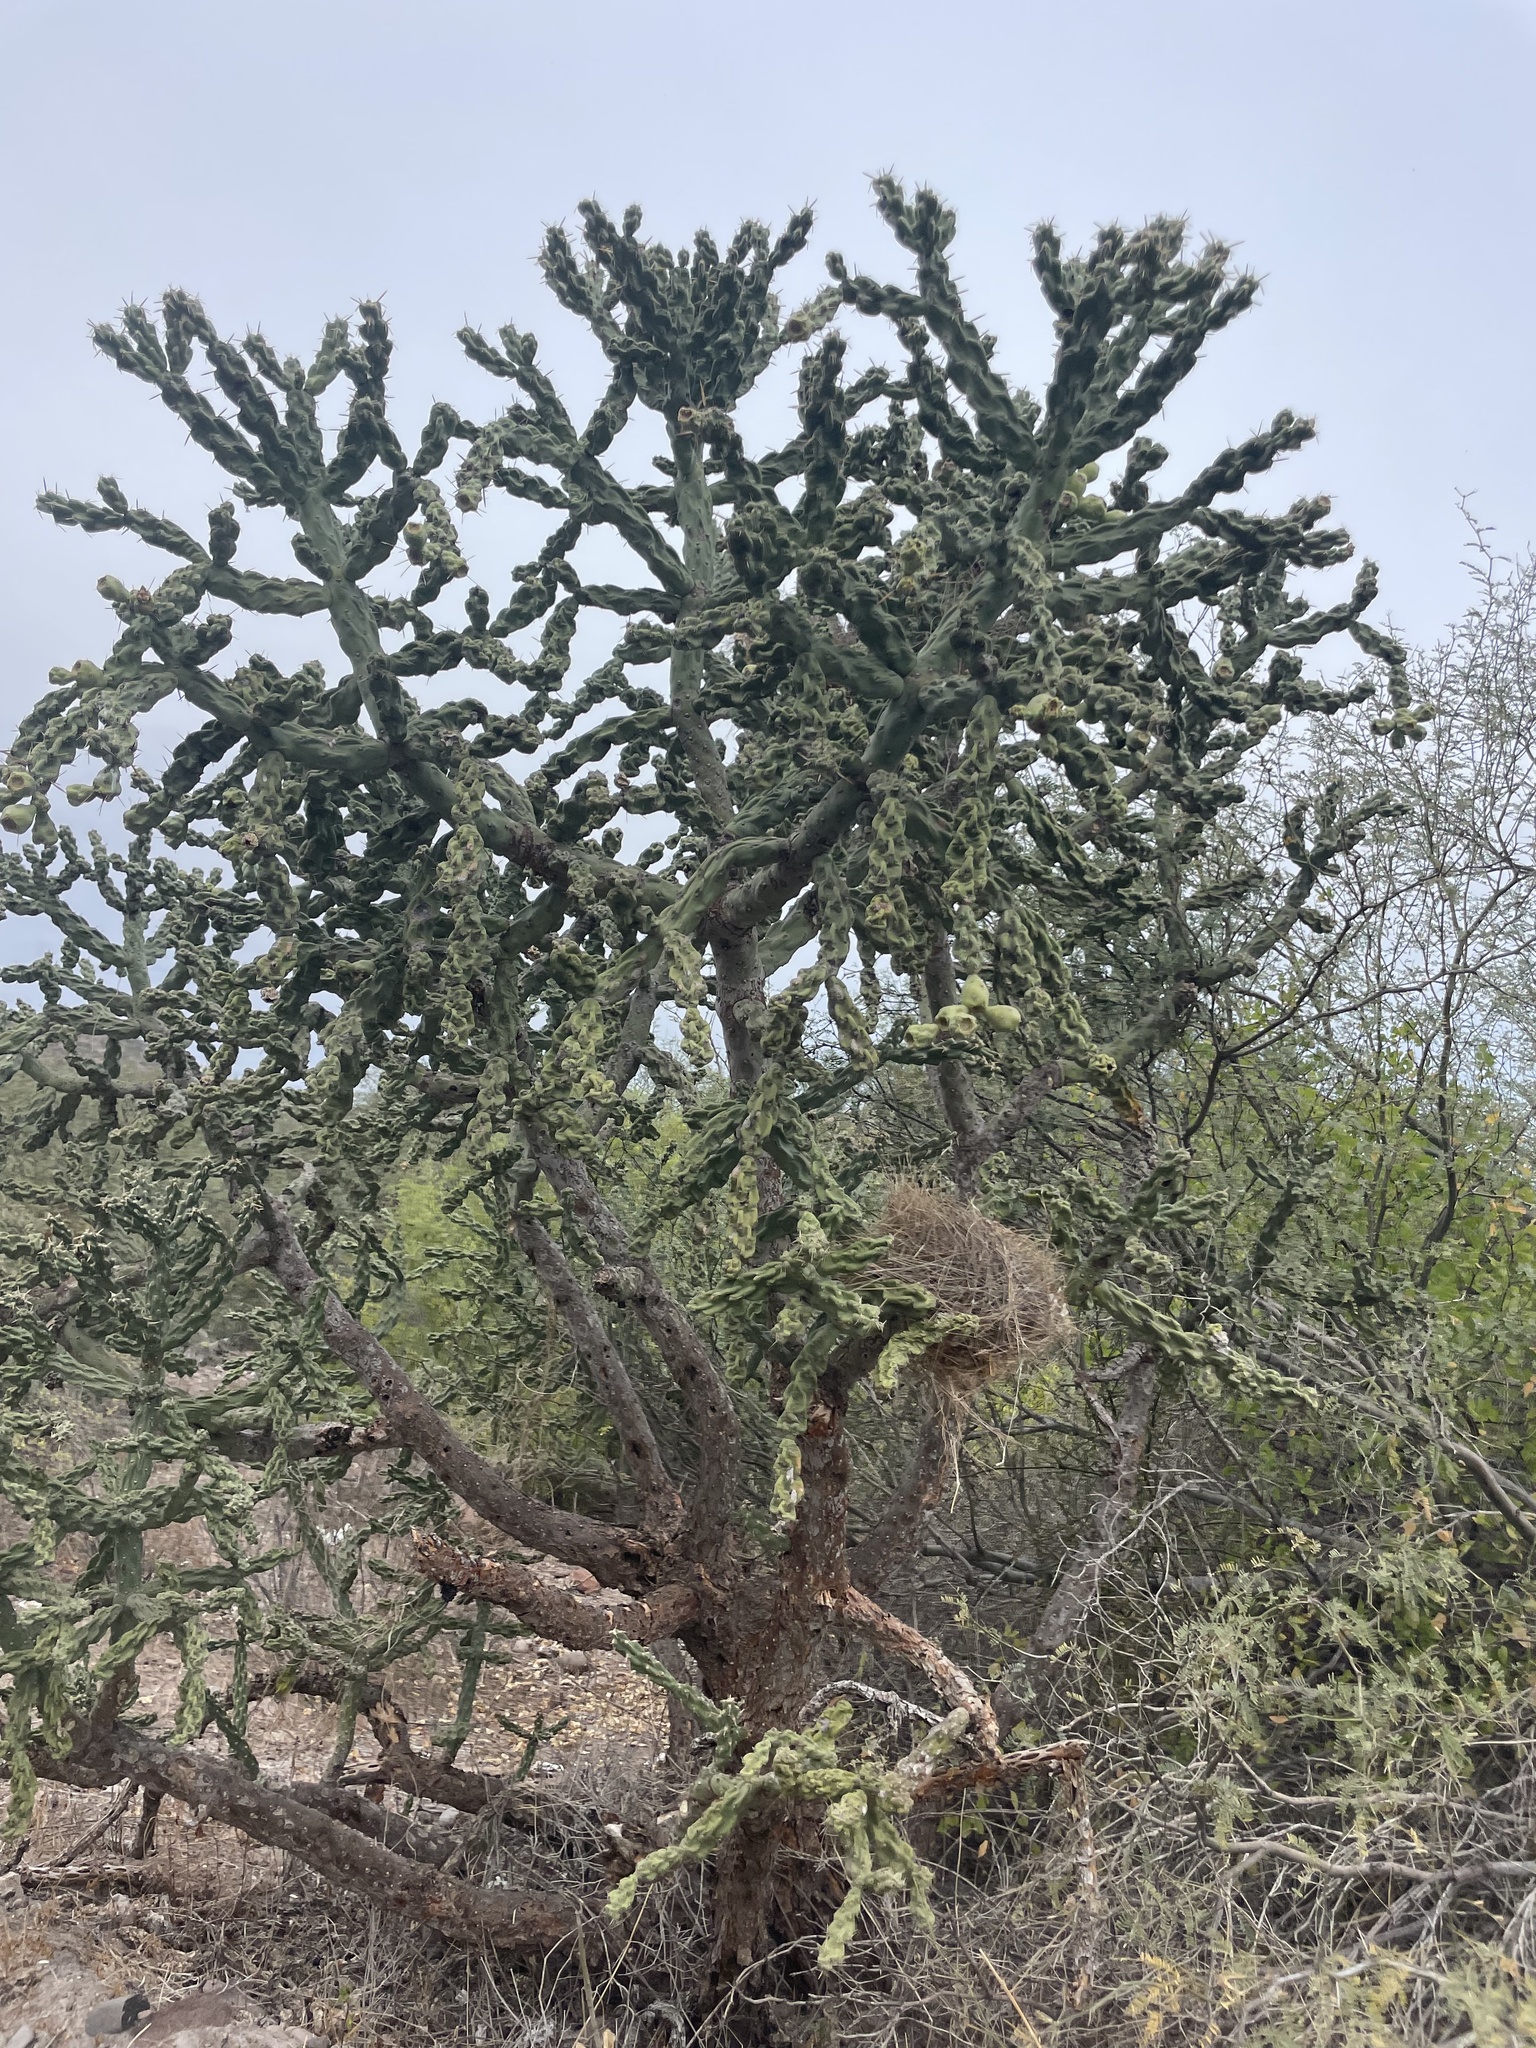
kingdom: Plantae
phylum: Tracheophyta
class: Magnoliopsida
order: Caryophyllales
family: Cactaceae
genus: Cylindropuntia
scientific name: Cylindropuntia cholla
